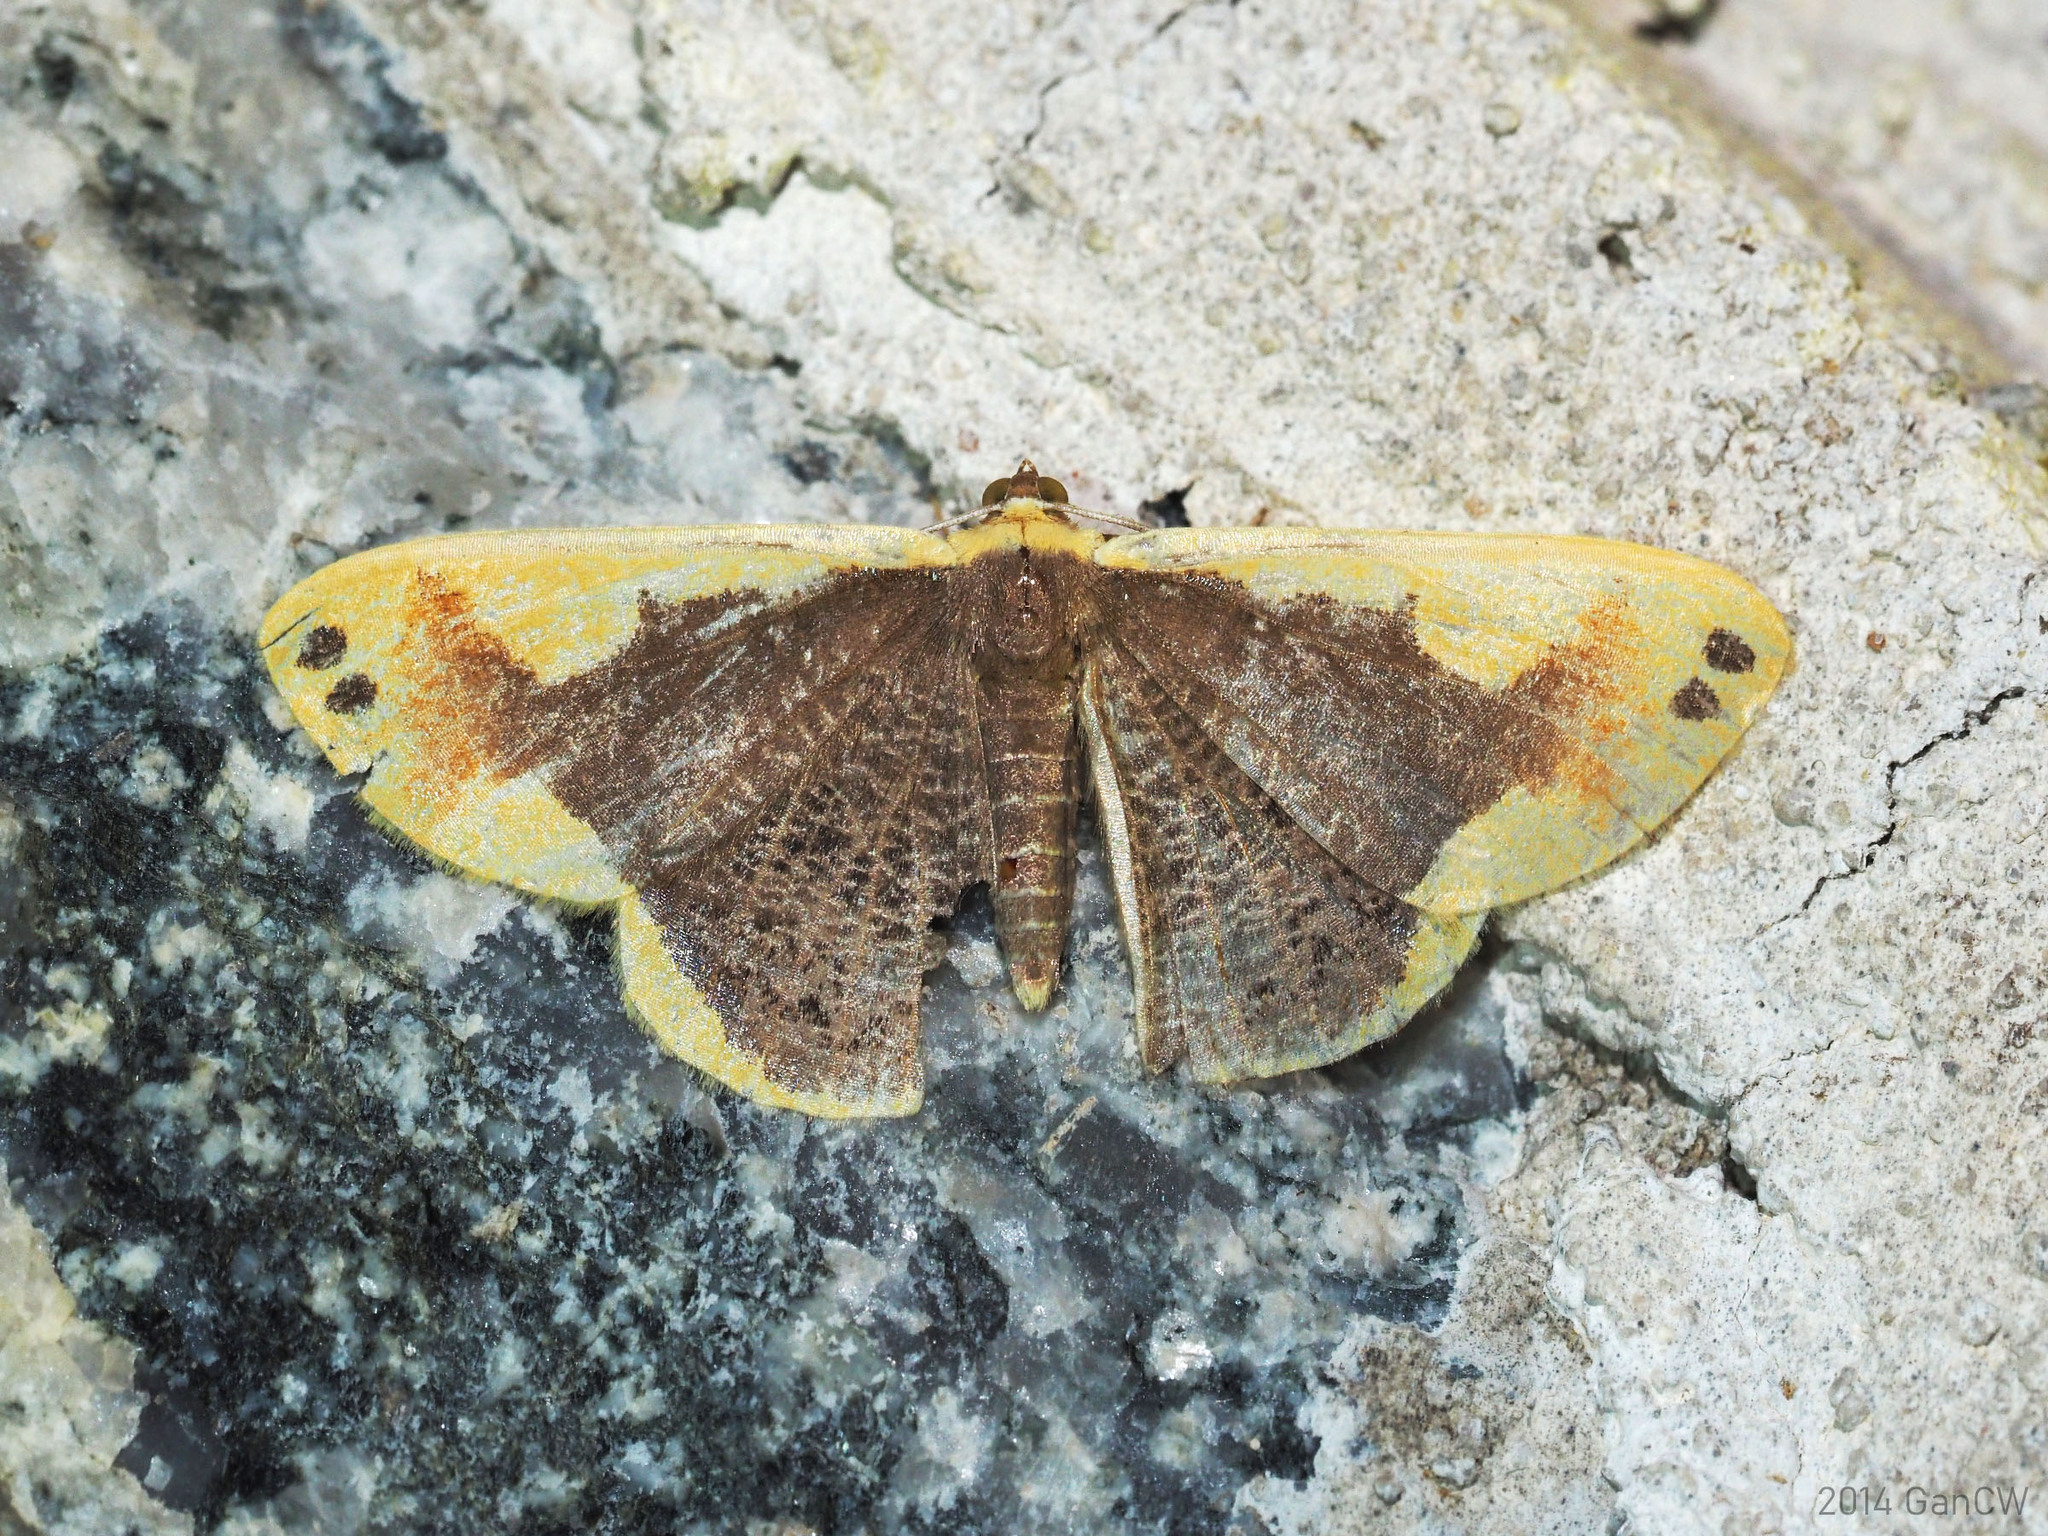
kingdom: Animalia
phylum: Arthropoda
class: Insecta
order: Lepidoptera
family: Geometridae
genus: Plutodes
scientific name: Plutodes moultoni
